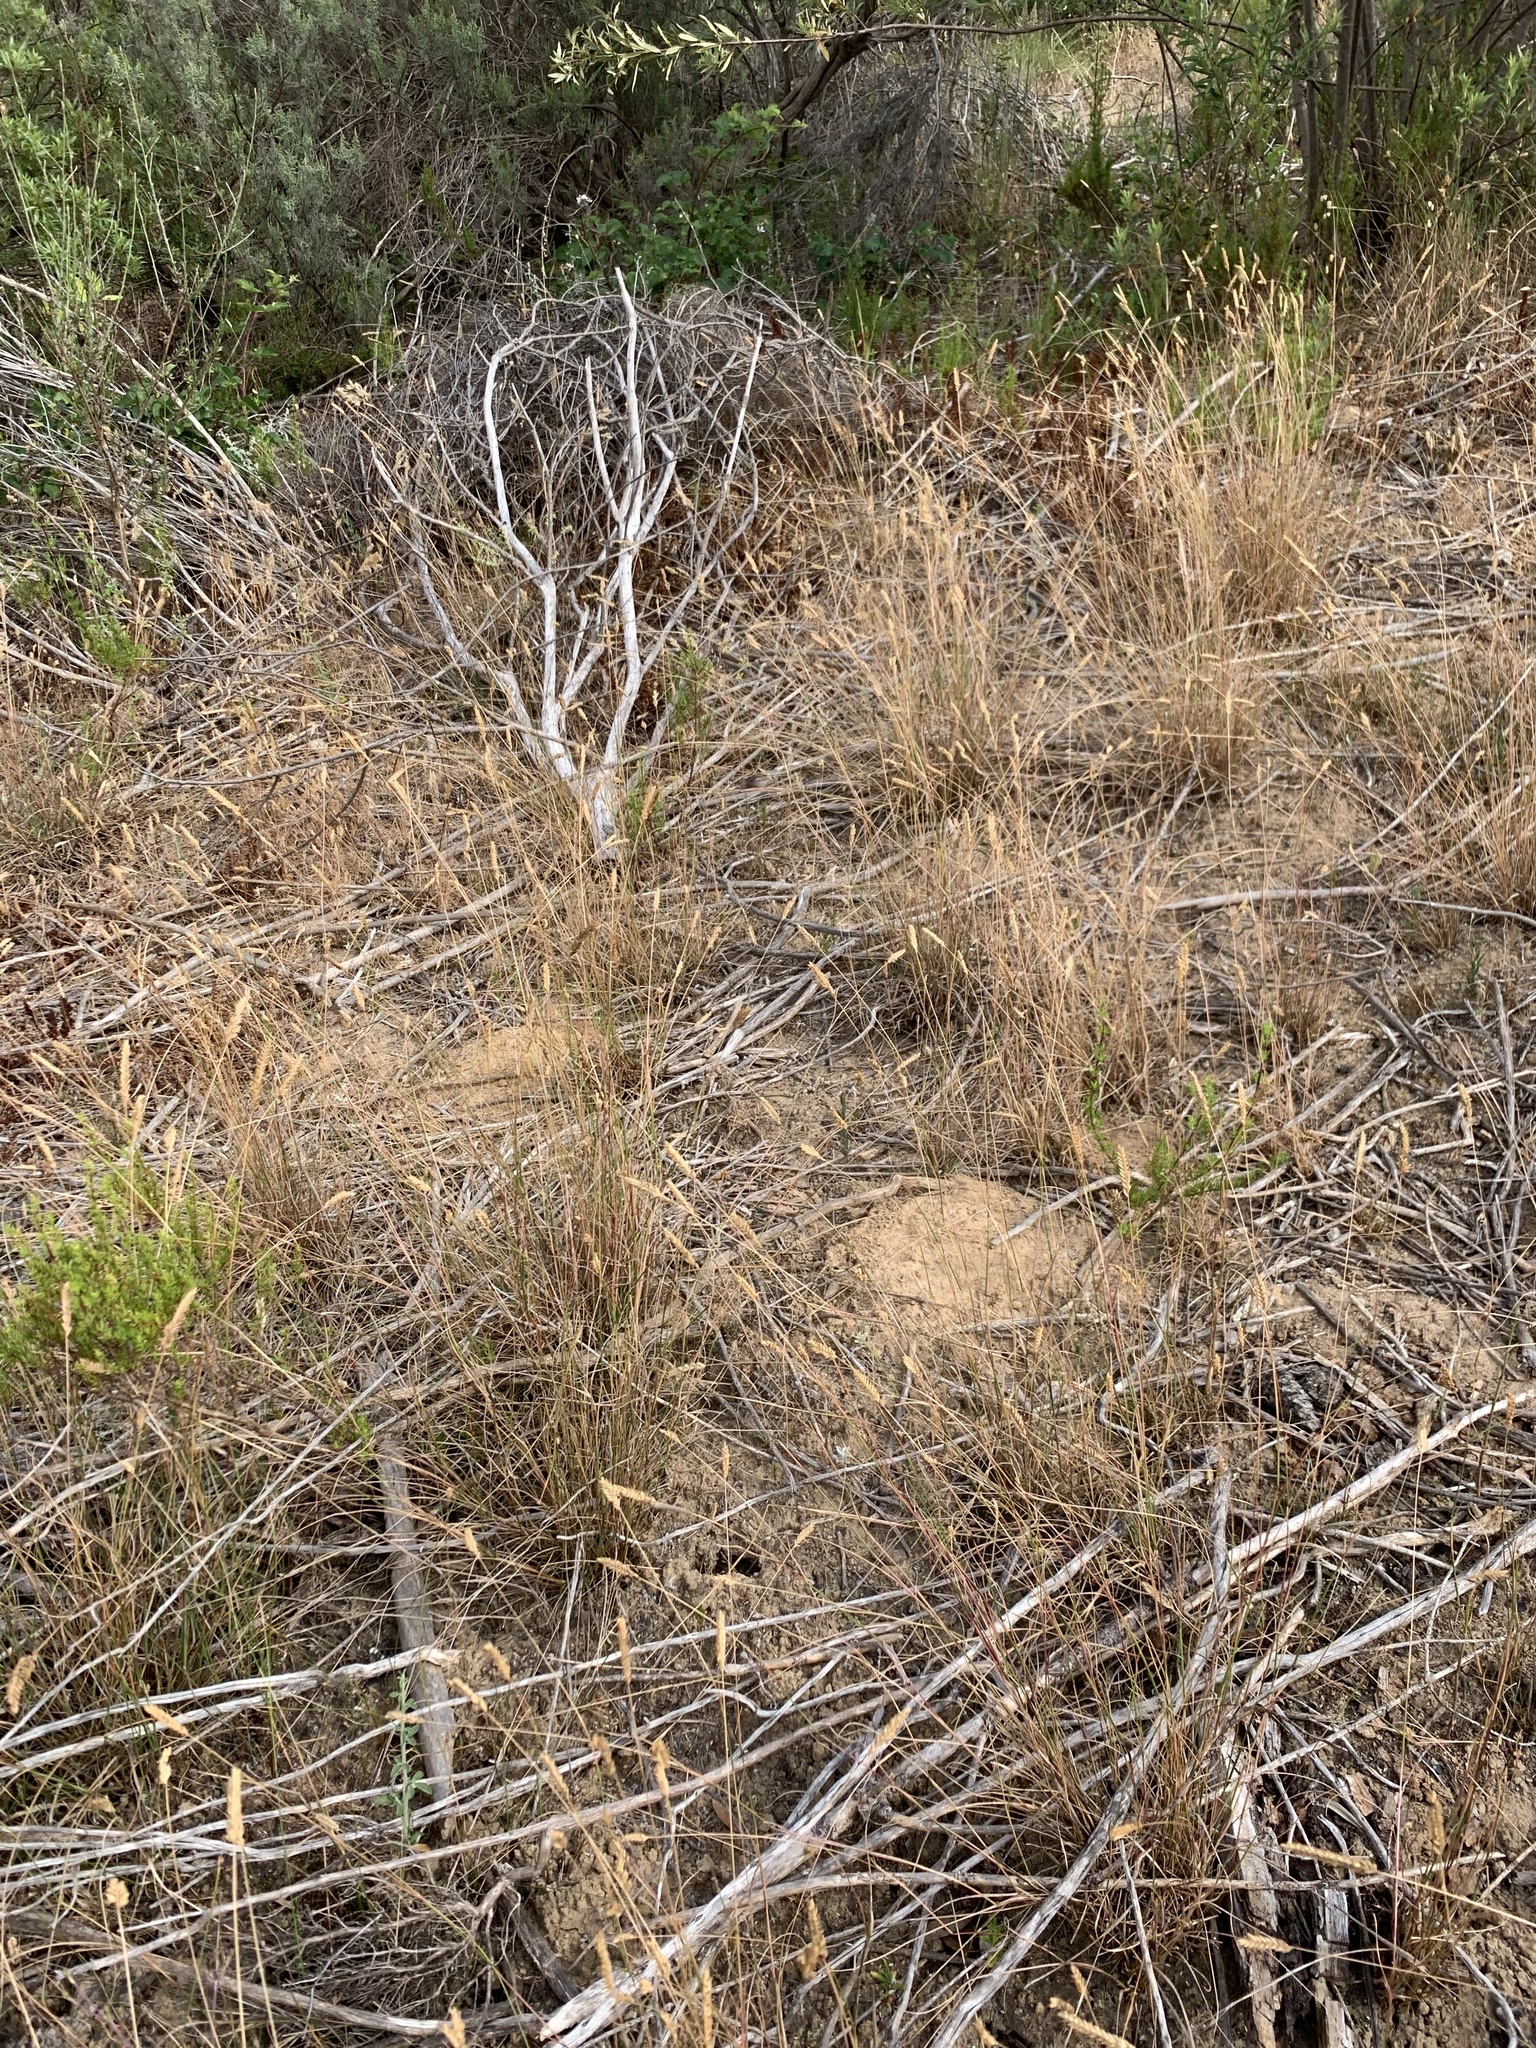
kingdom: Plantae
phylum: Tracheophyta
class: Liliopsida
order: Poales
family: Poaceae
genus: Tribolium
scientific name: Tribolium uniolae
